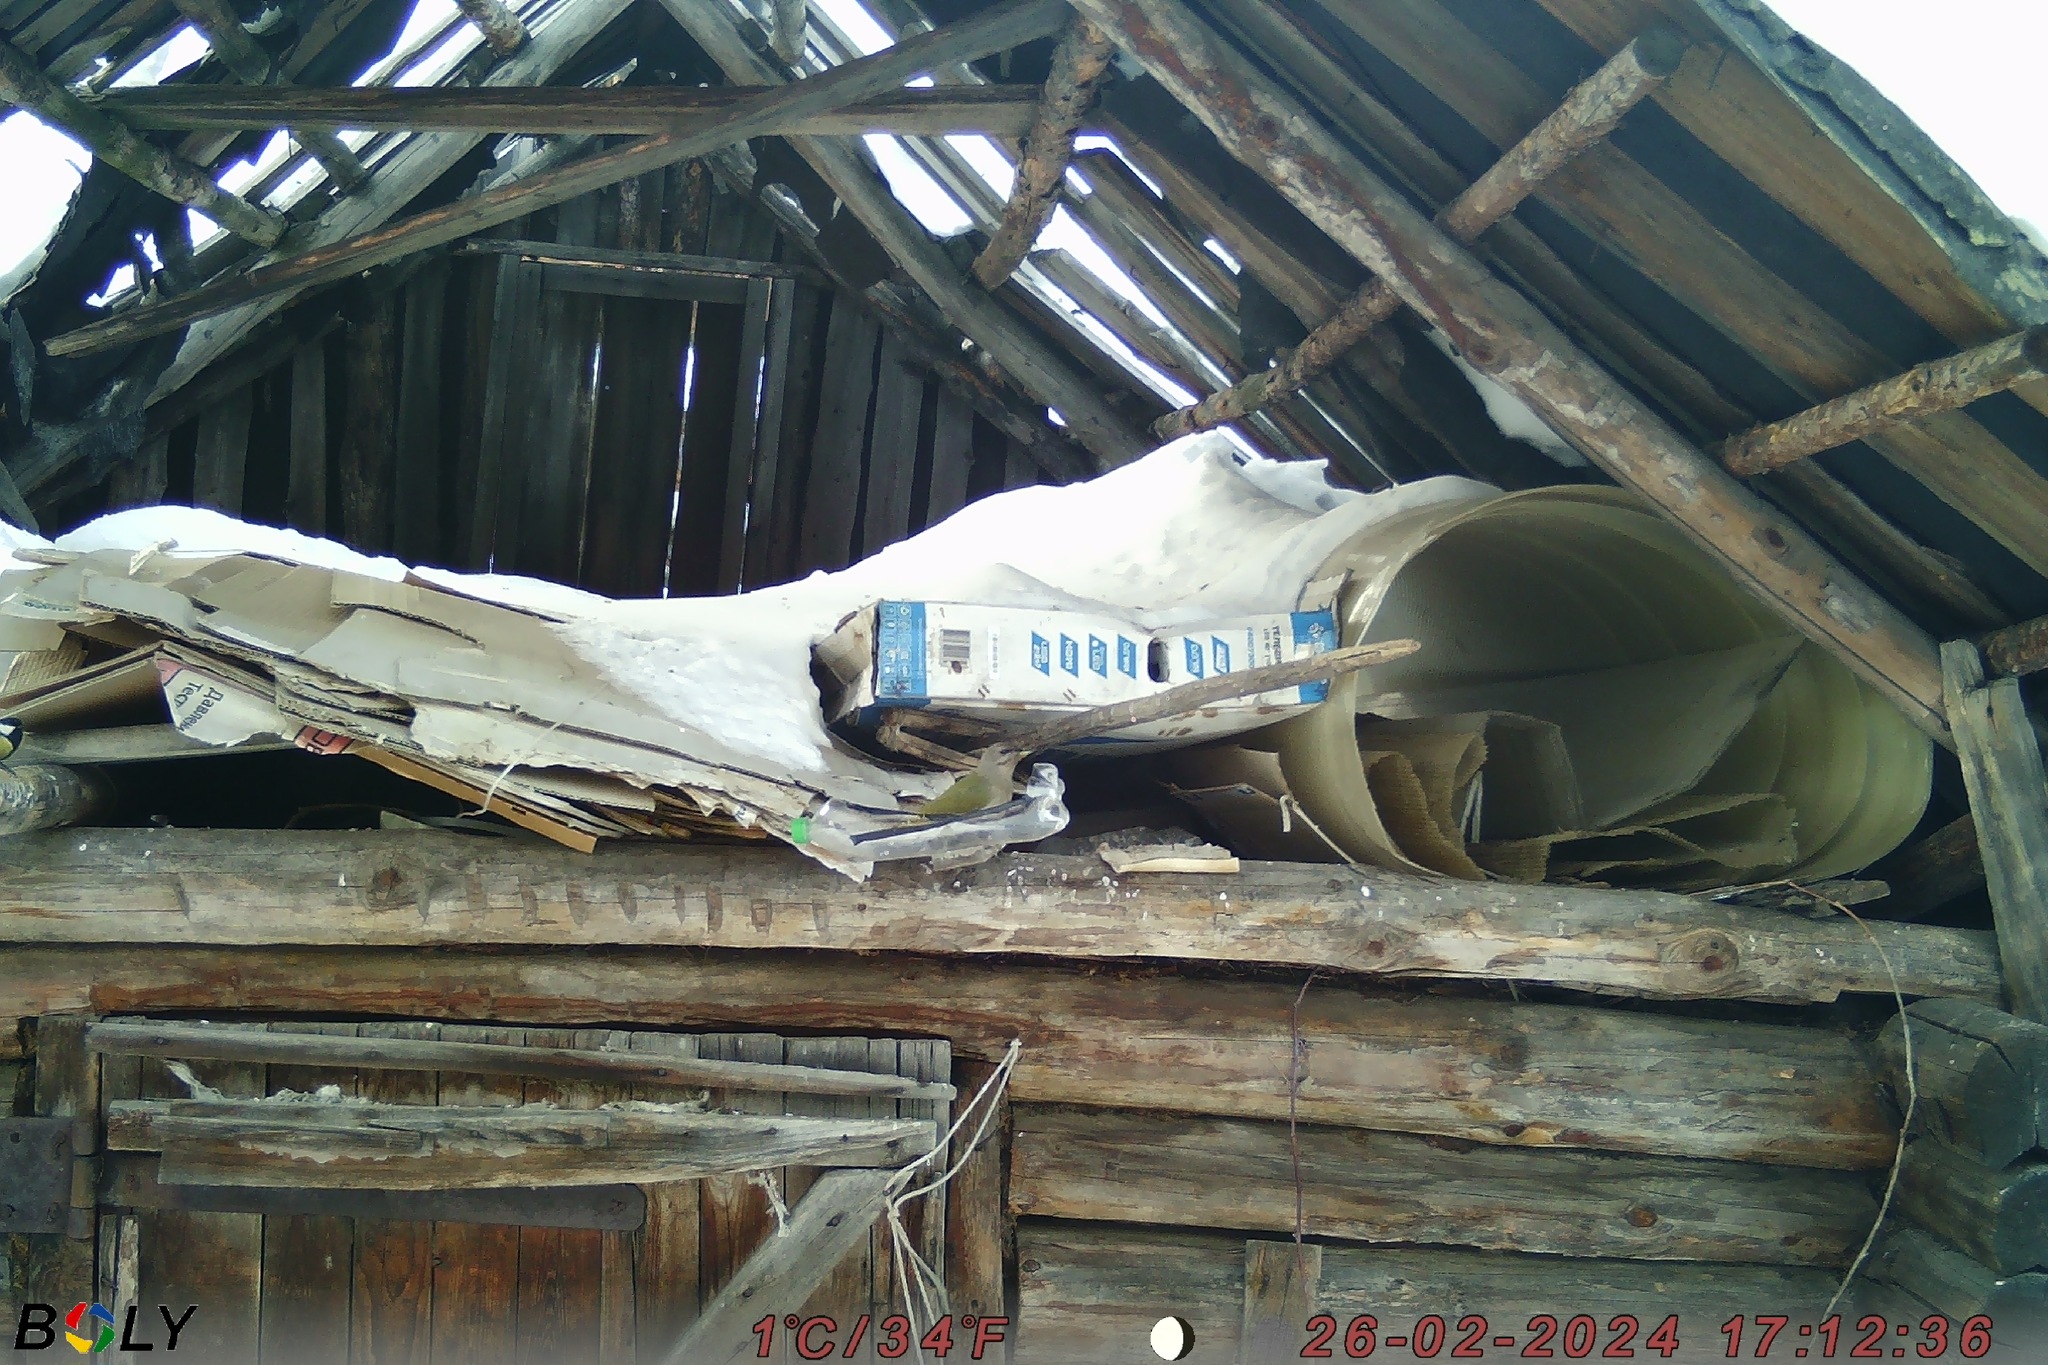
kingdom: Animalia
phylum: Chordata
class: Aves
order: Piciformes
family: Picidae
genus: Picus
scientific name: Picus canus
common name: Grey-headed woodpecker
